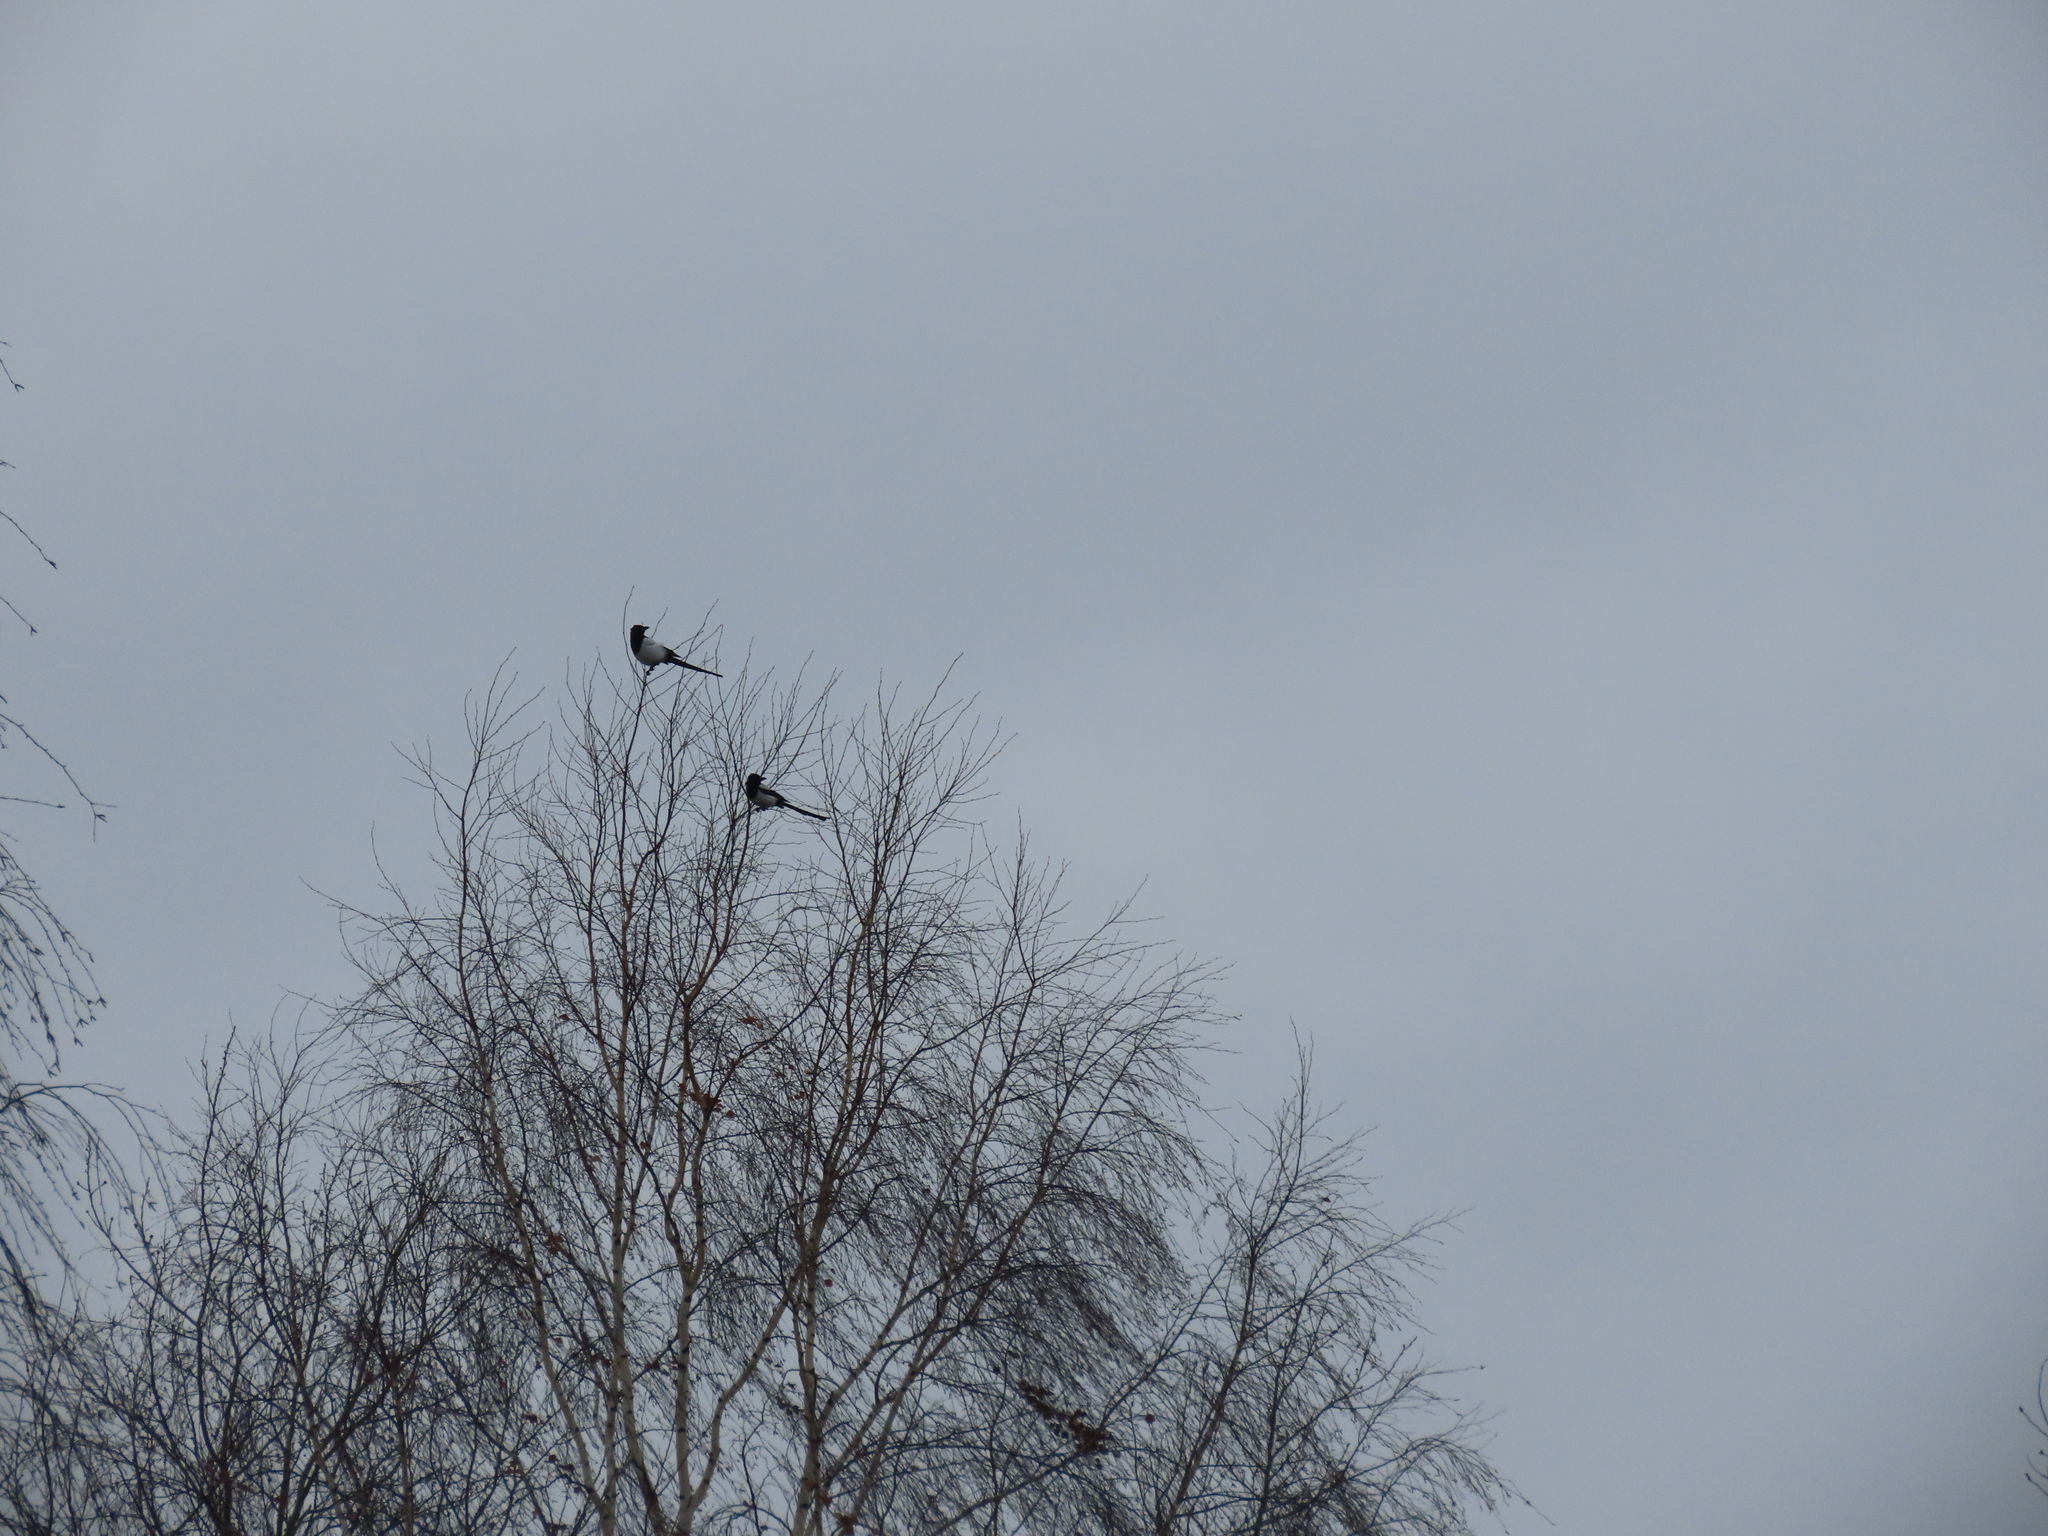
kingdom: Animalia
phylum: Chordata
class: Aves
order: Passeriformes
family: Corvidae
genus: Pica
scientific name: Pica pica
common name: Eurasian magpie
